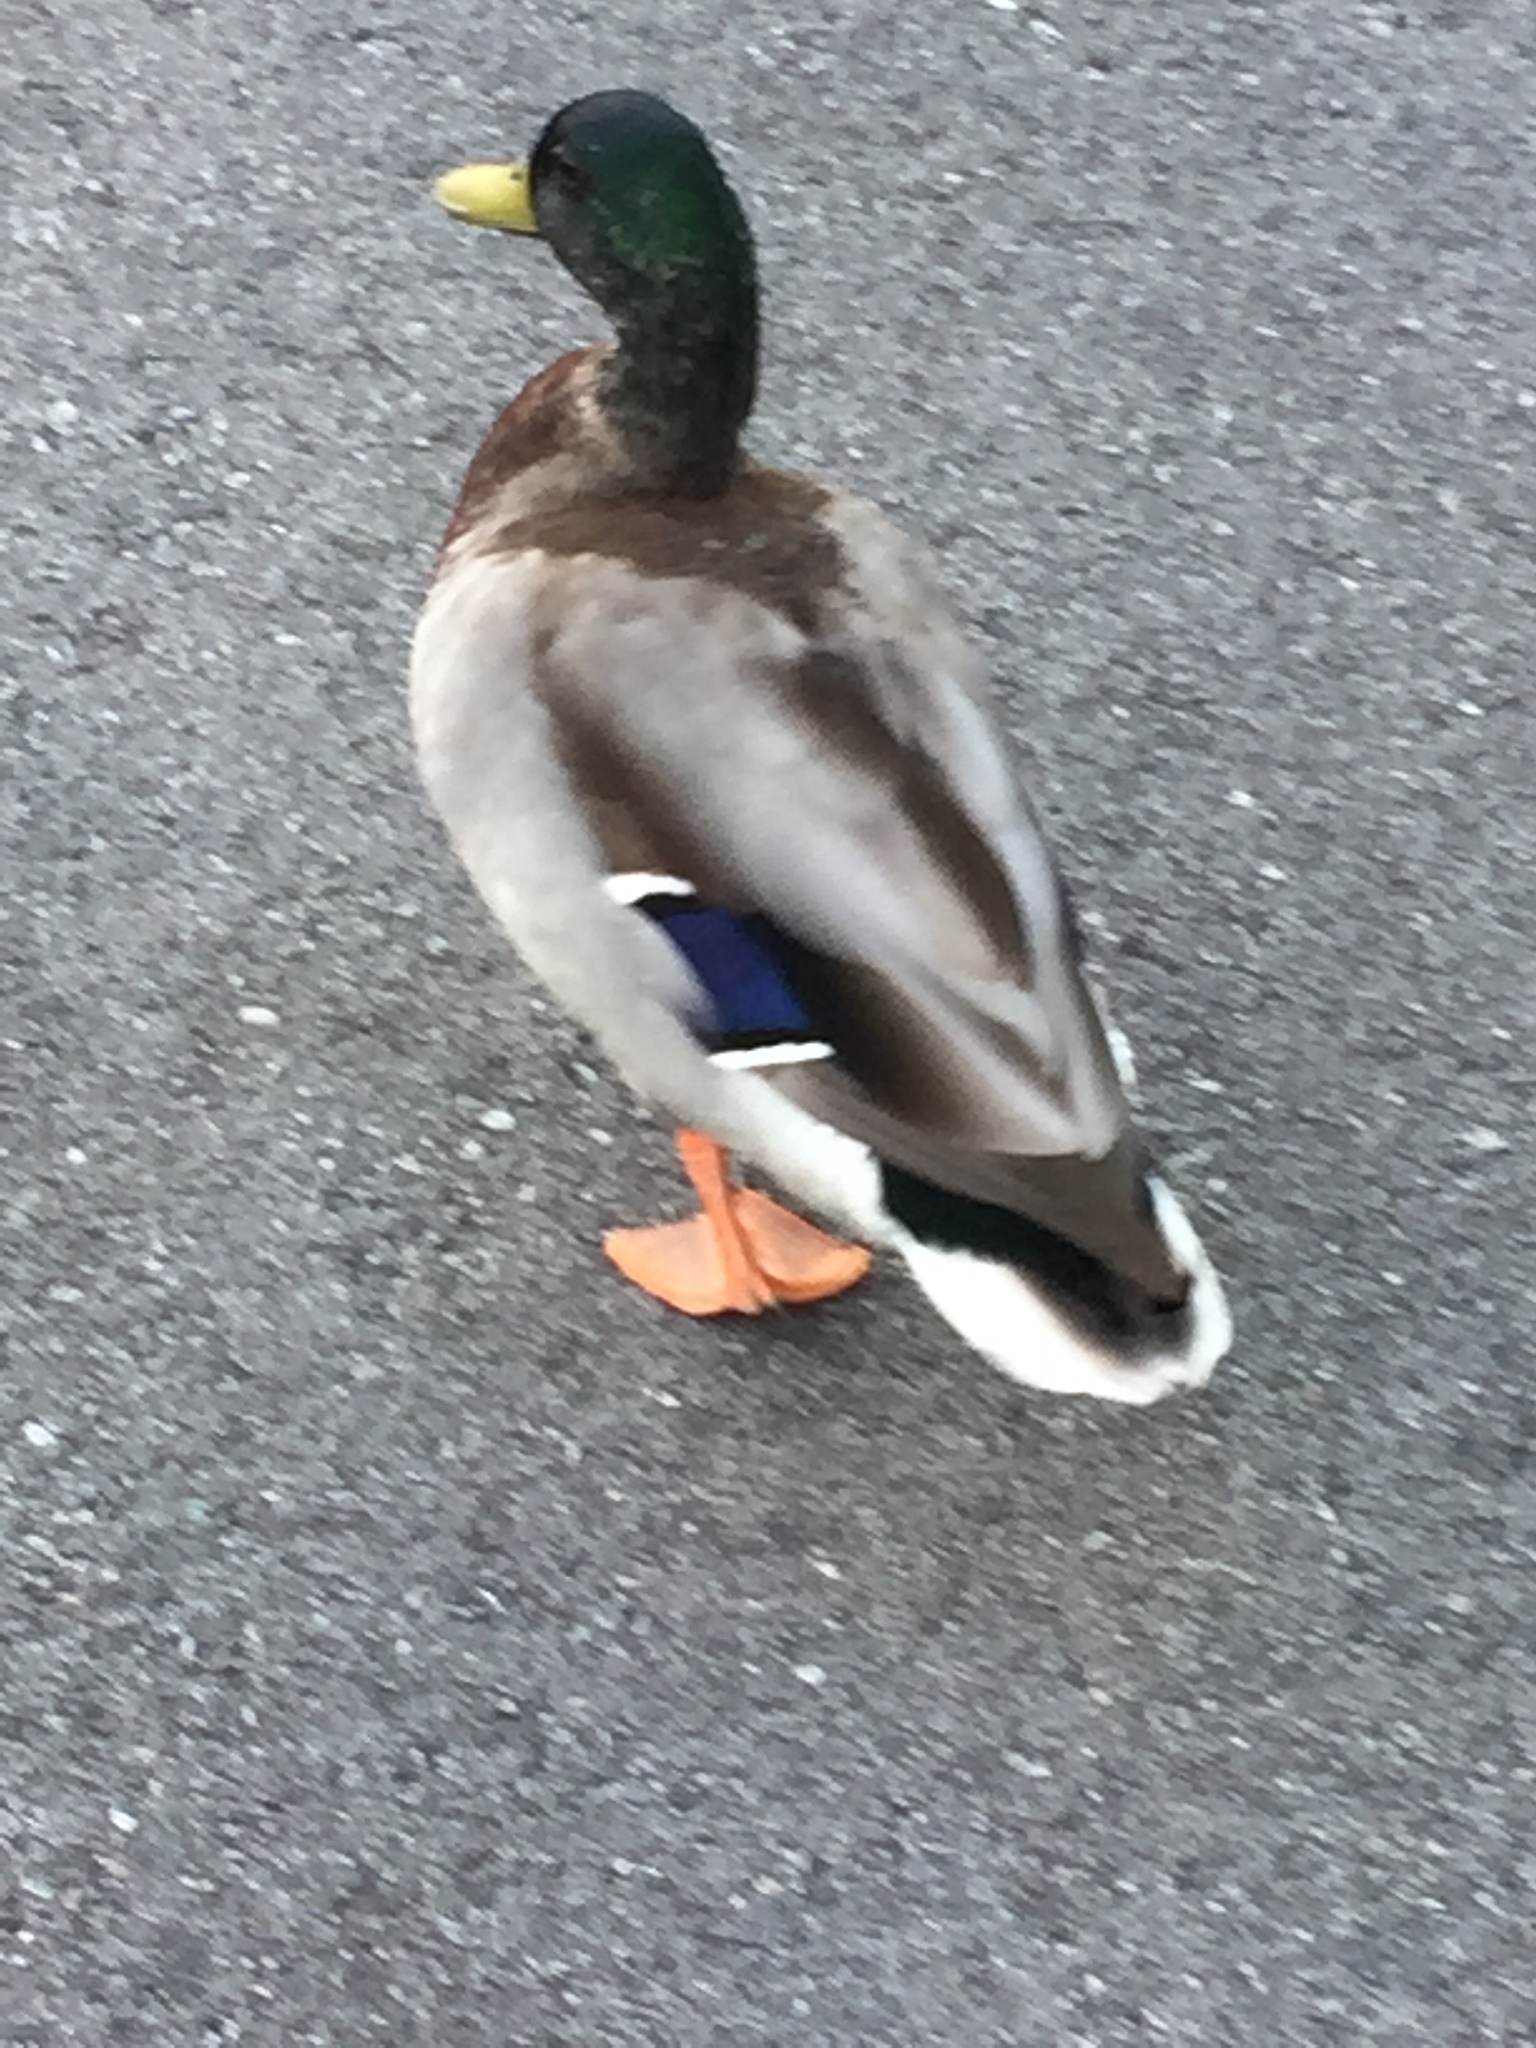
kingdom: Animalia
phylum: Chordata
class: Aves
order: Anseriformes
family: Anatidae
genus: Anas
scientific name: Anas platyrhynchos
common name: Mallard
